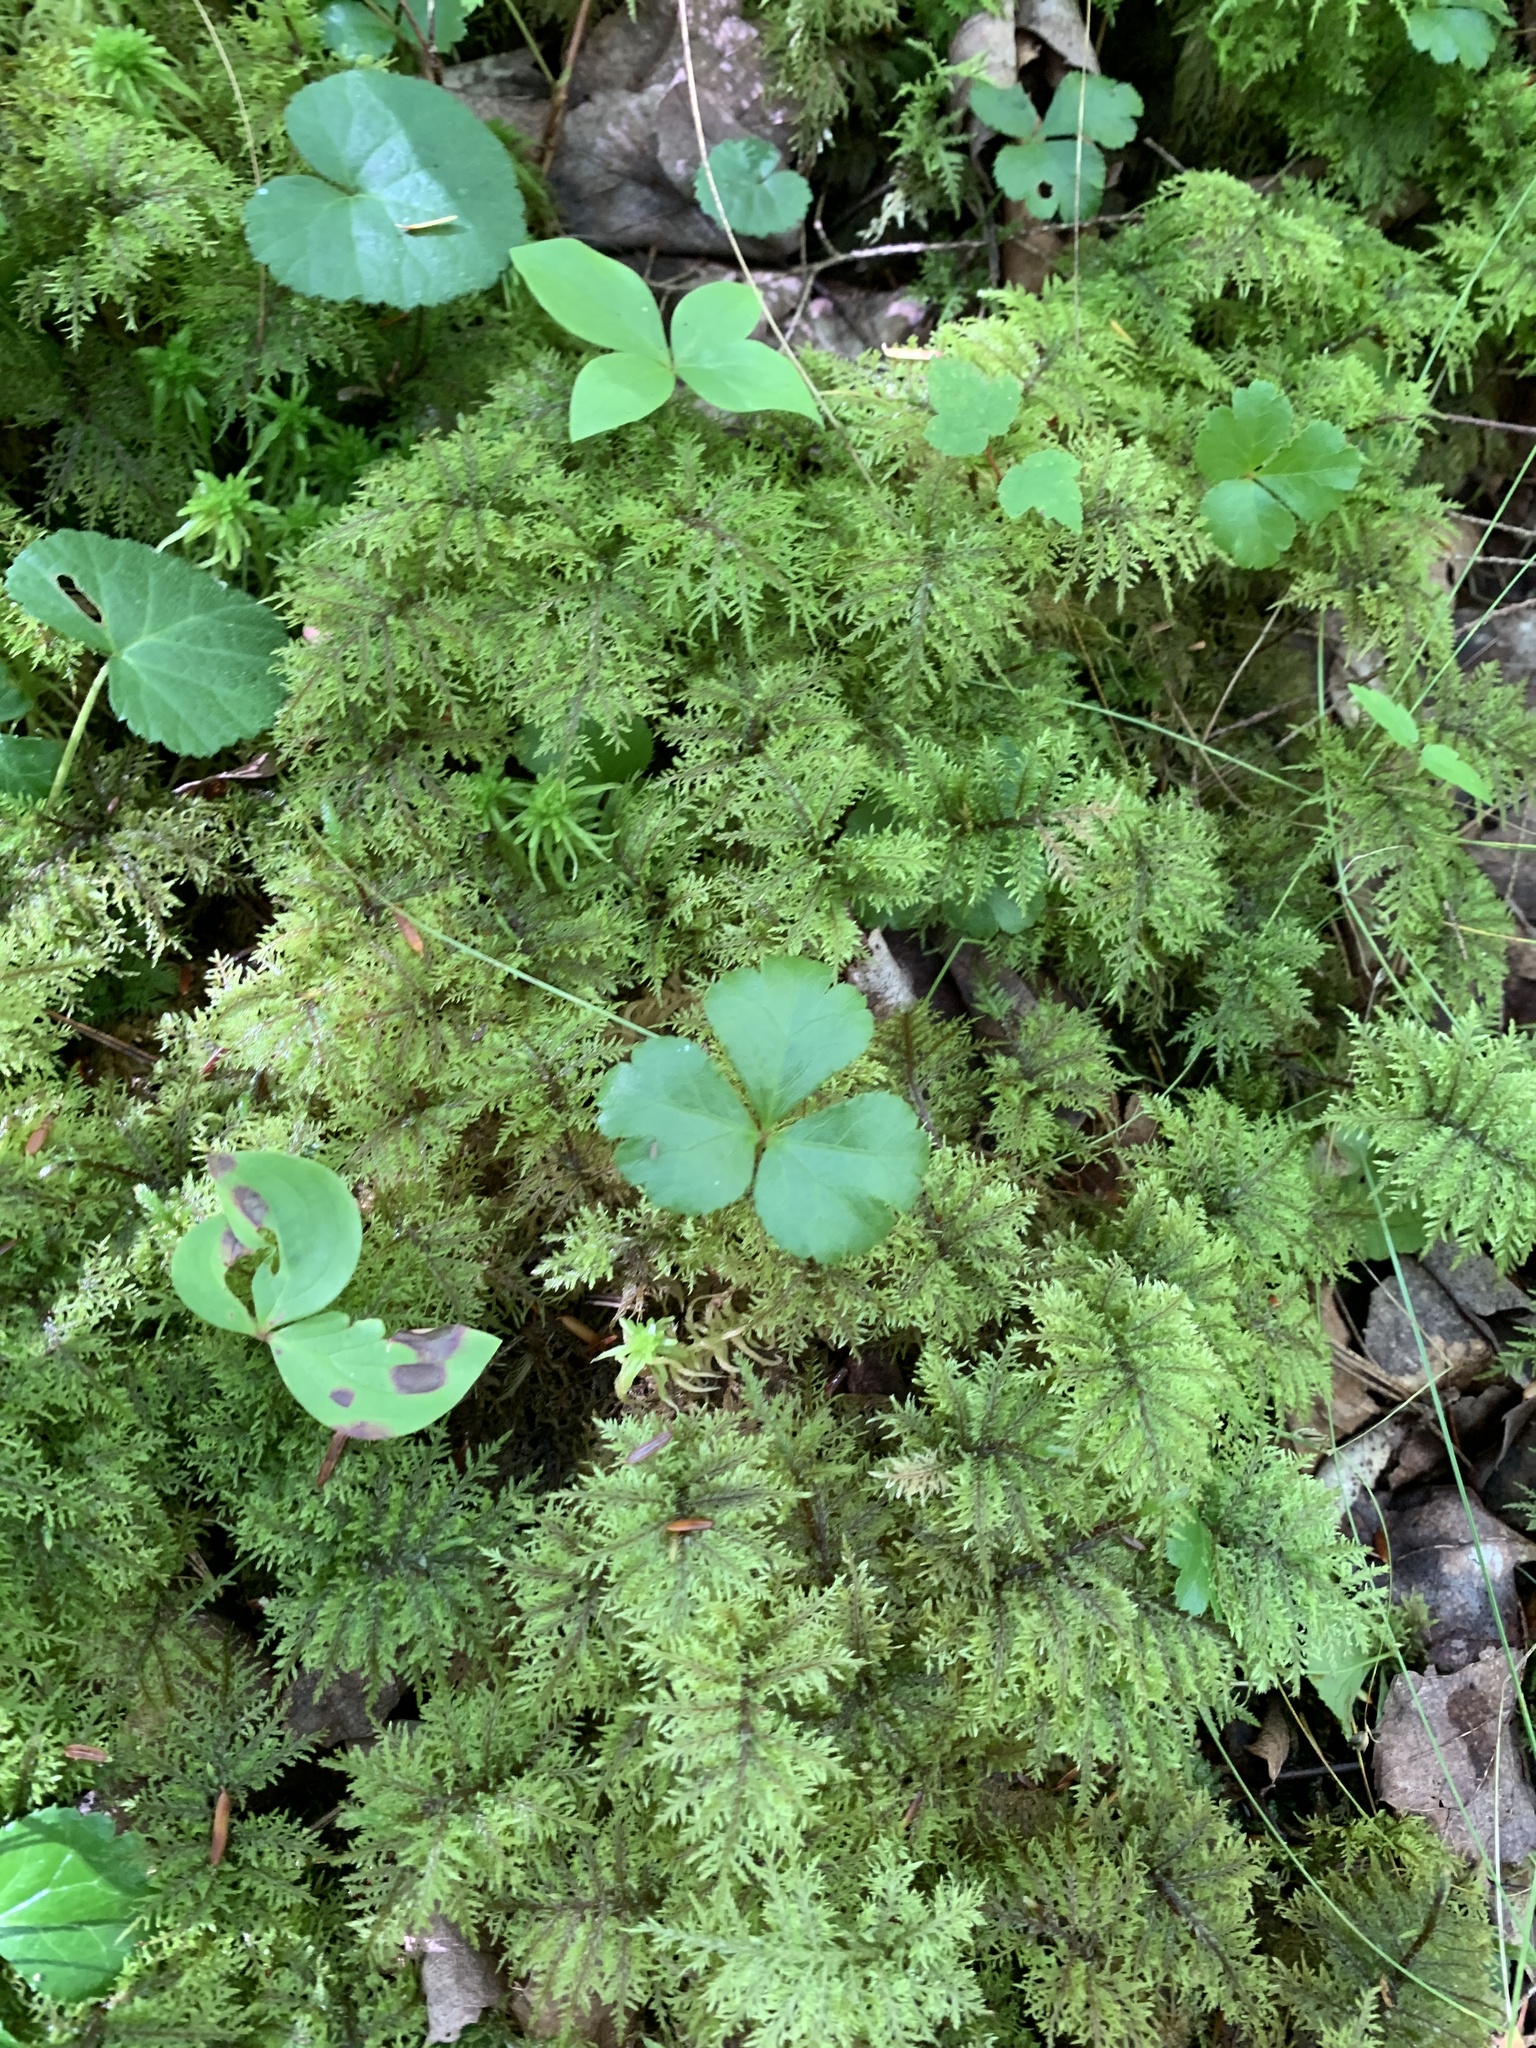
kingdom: Plantae
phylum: Bryophyta
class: Bryopsida
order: Hypnales
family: Hylocomiaceae
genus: Hylocomium
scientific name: Hylocomium splendens
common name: Stairstep moss
